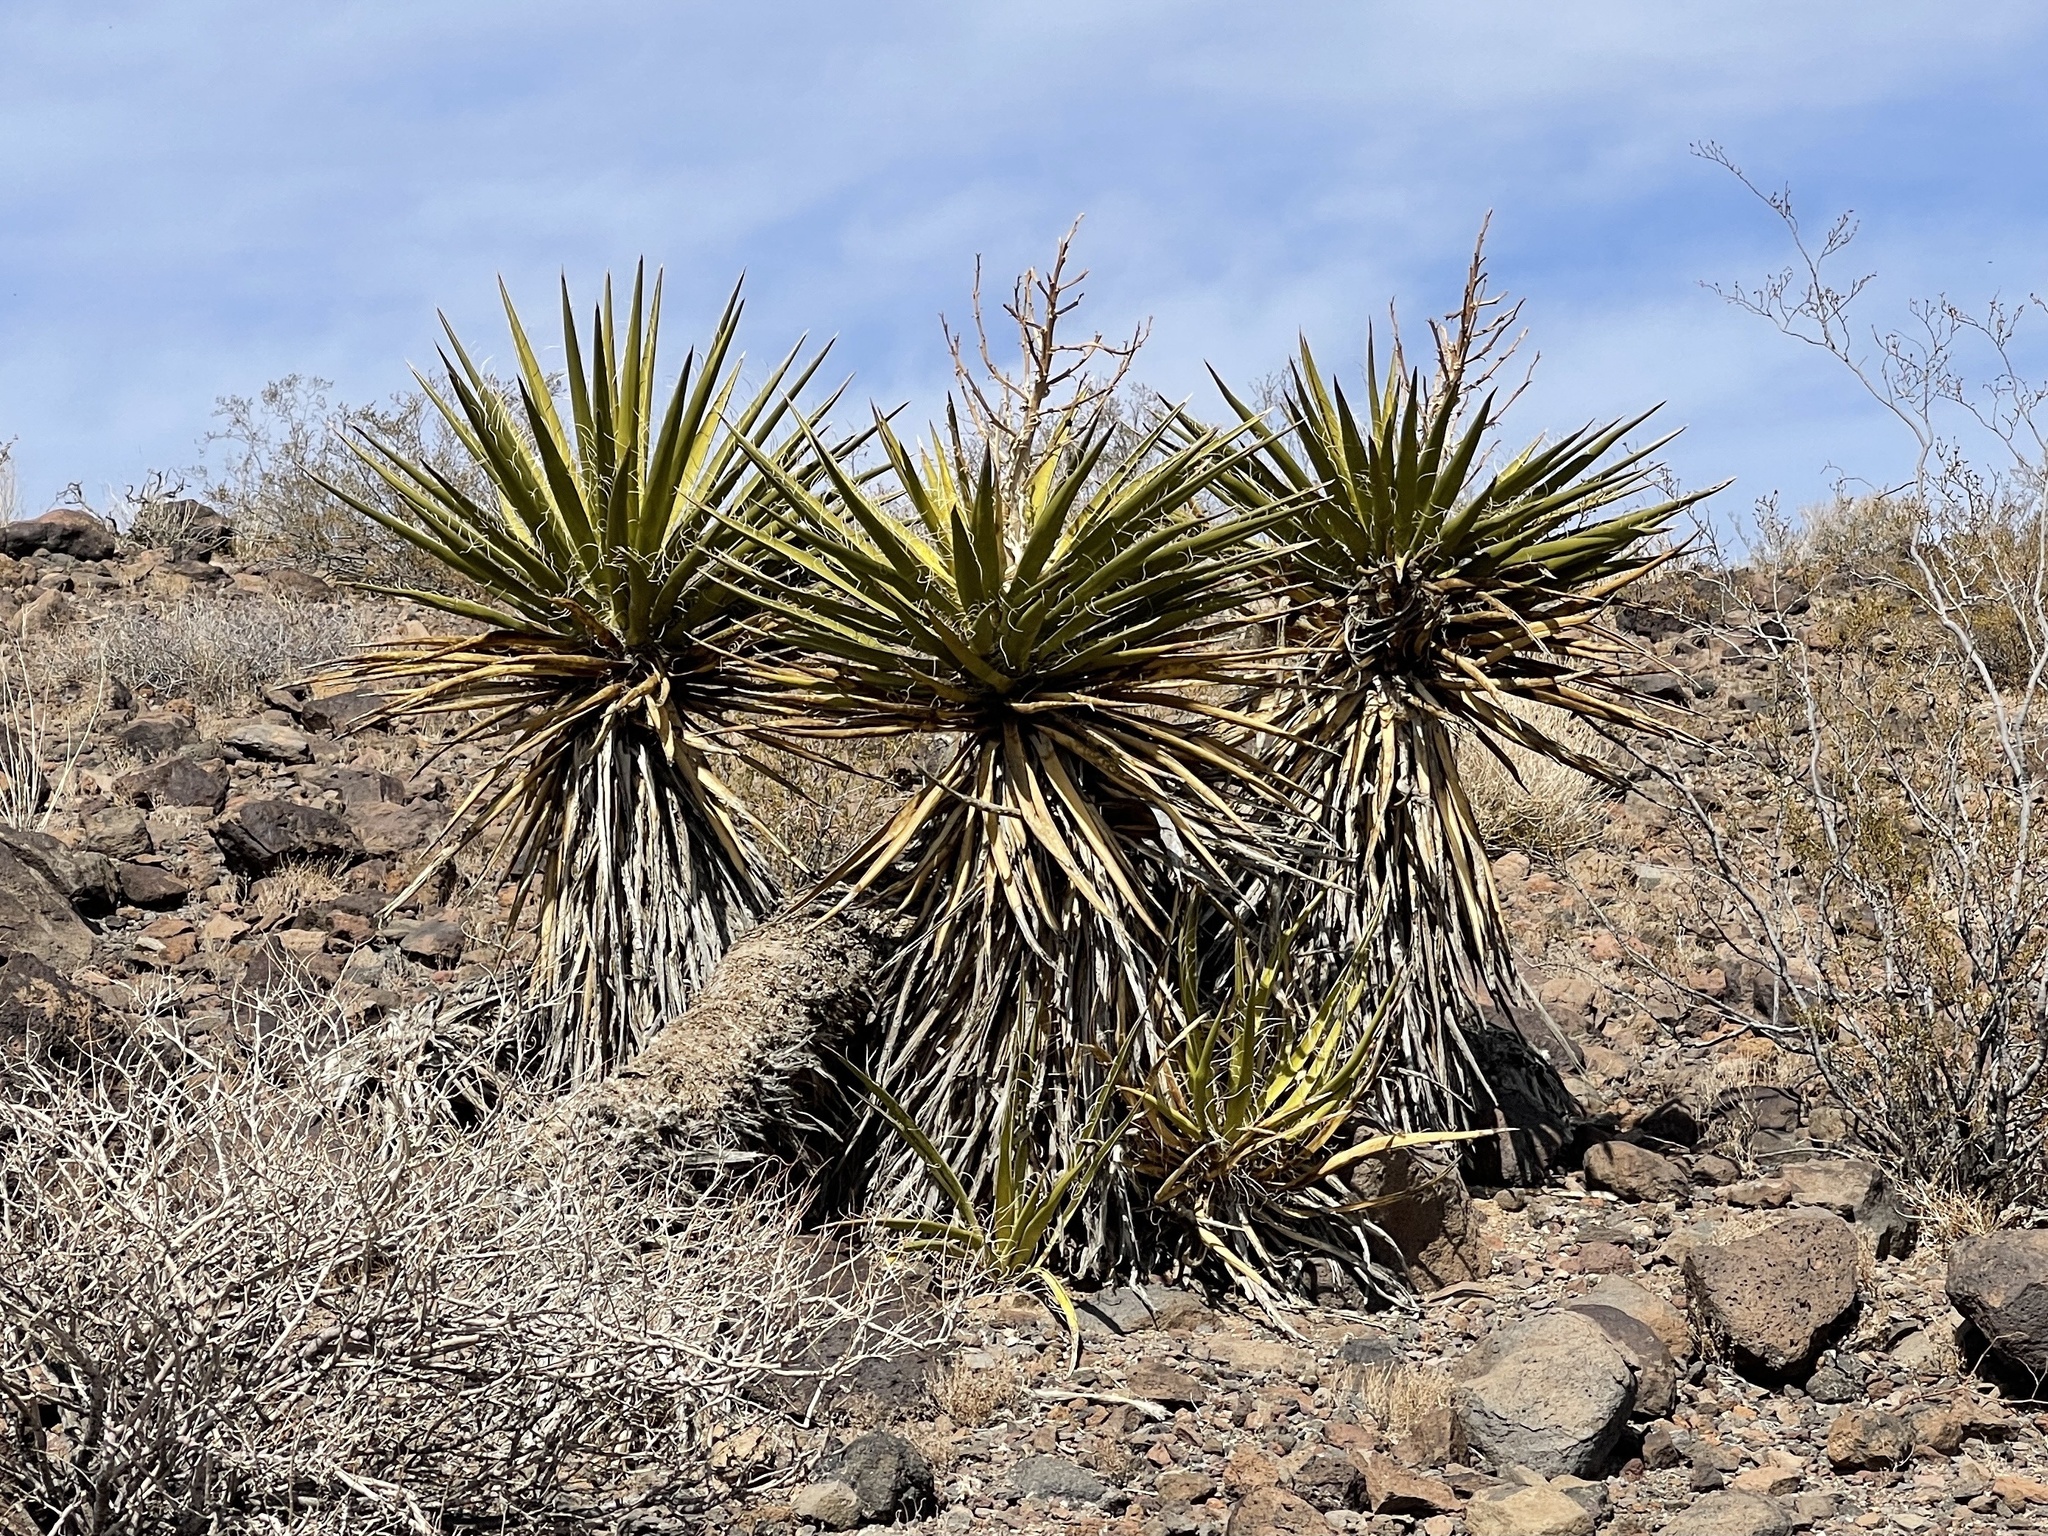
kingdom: Plantae
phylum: Tracheophyta
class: Liliopsida
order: Asparagales
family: Asparagaceae
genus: Yucca
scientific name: Yucca schidigera
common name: Mojave yucca
